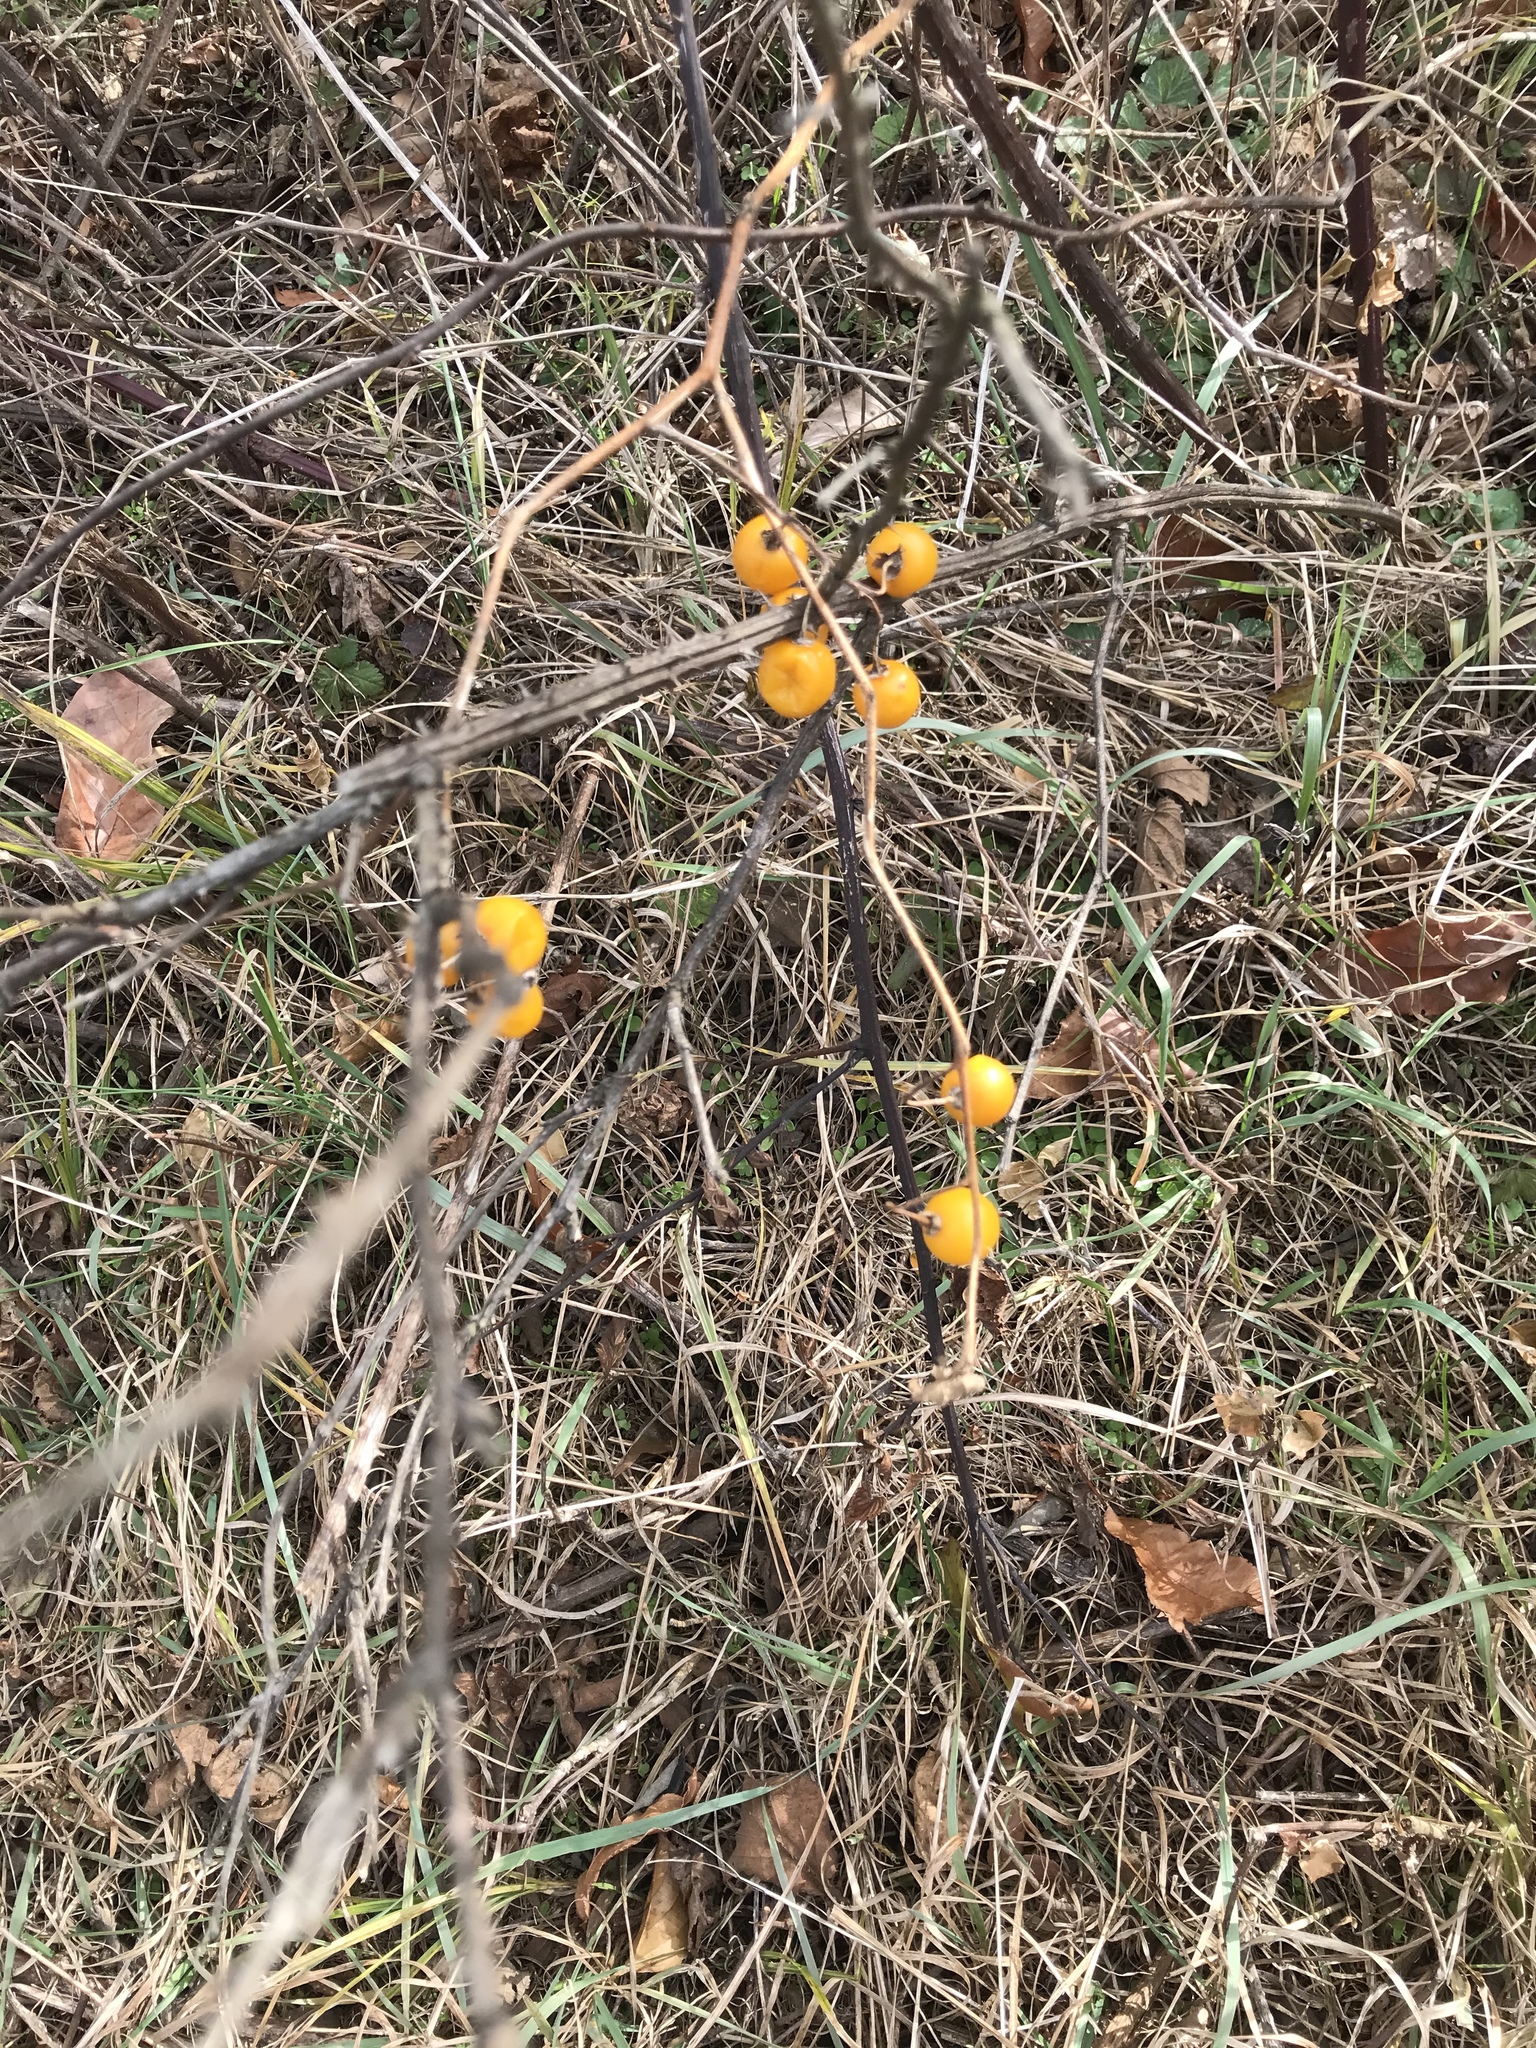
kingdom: Plantae
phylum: Tracheophyta
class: Magnoliopsida
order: Solanales
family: Solanaceae
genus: Solanum
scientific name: Solanum carolinense
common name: Horse-nettle
